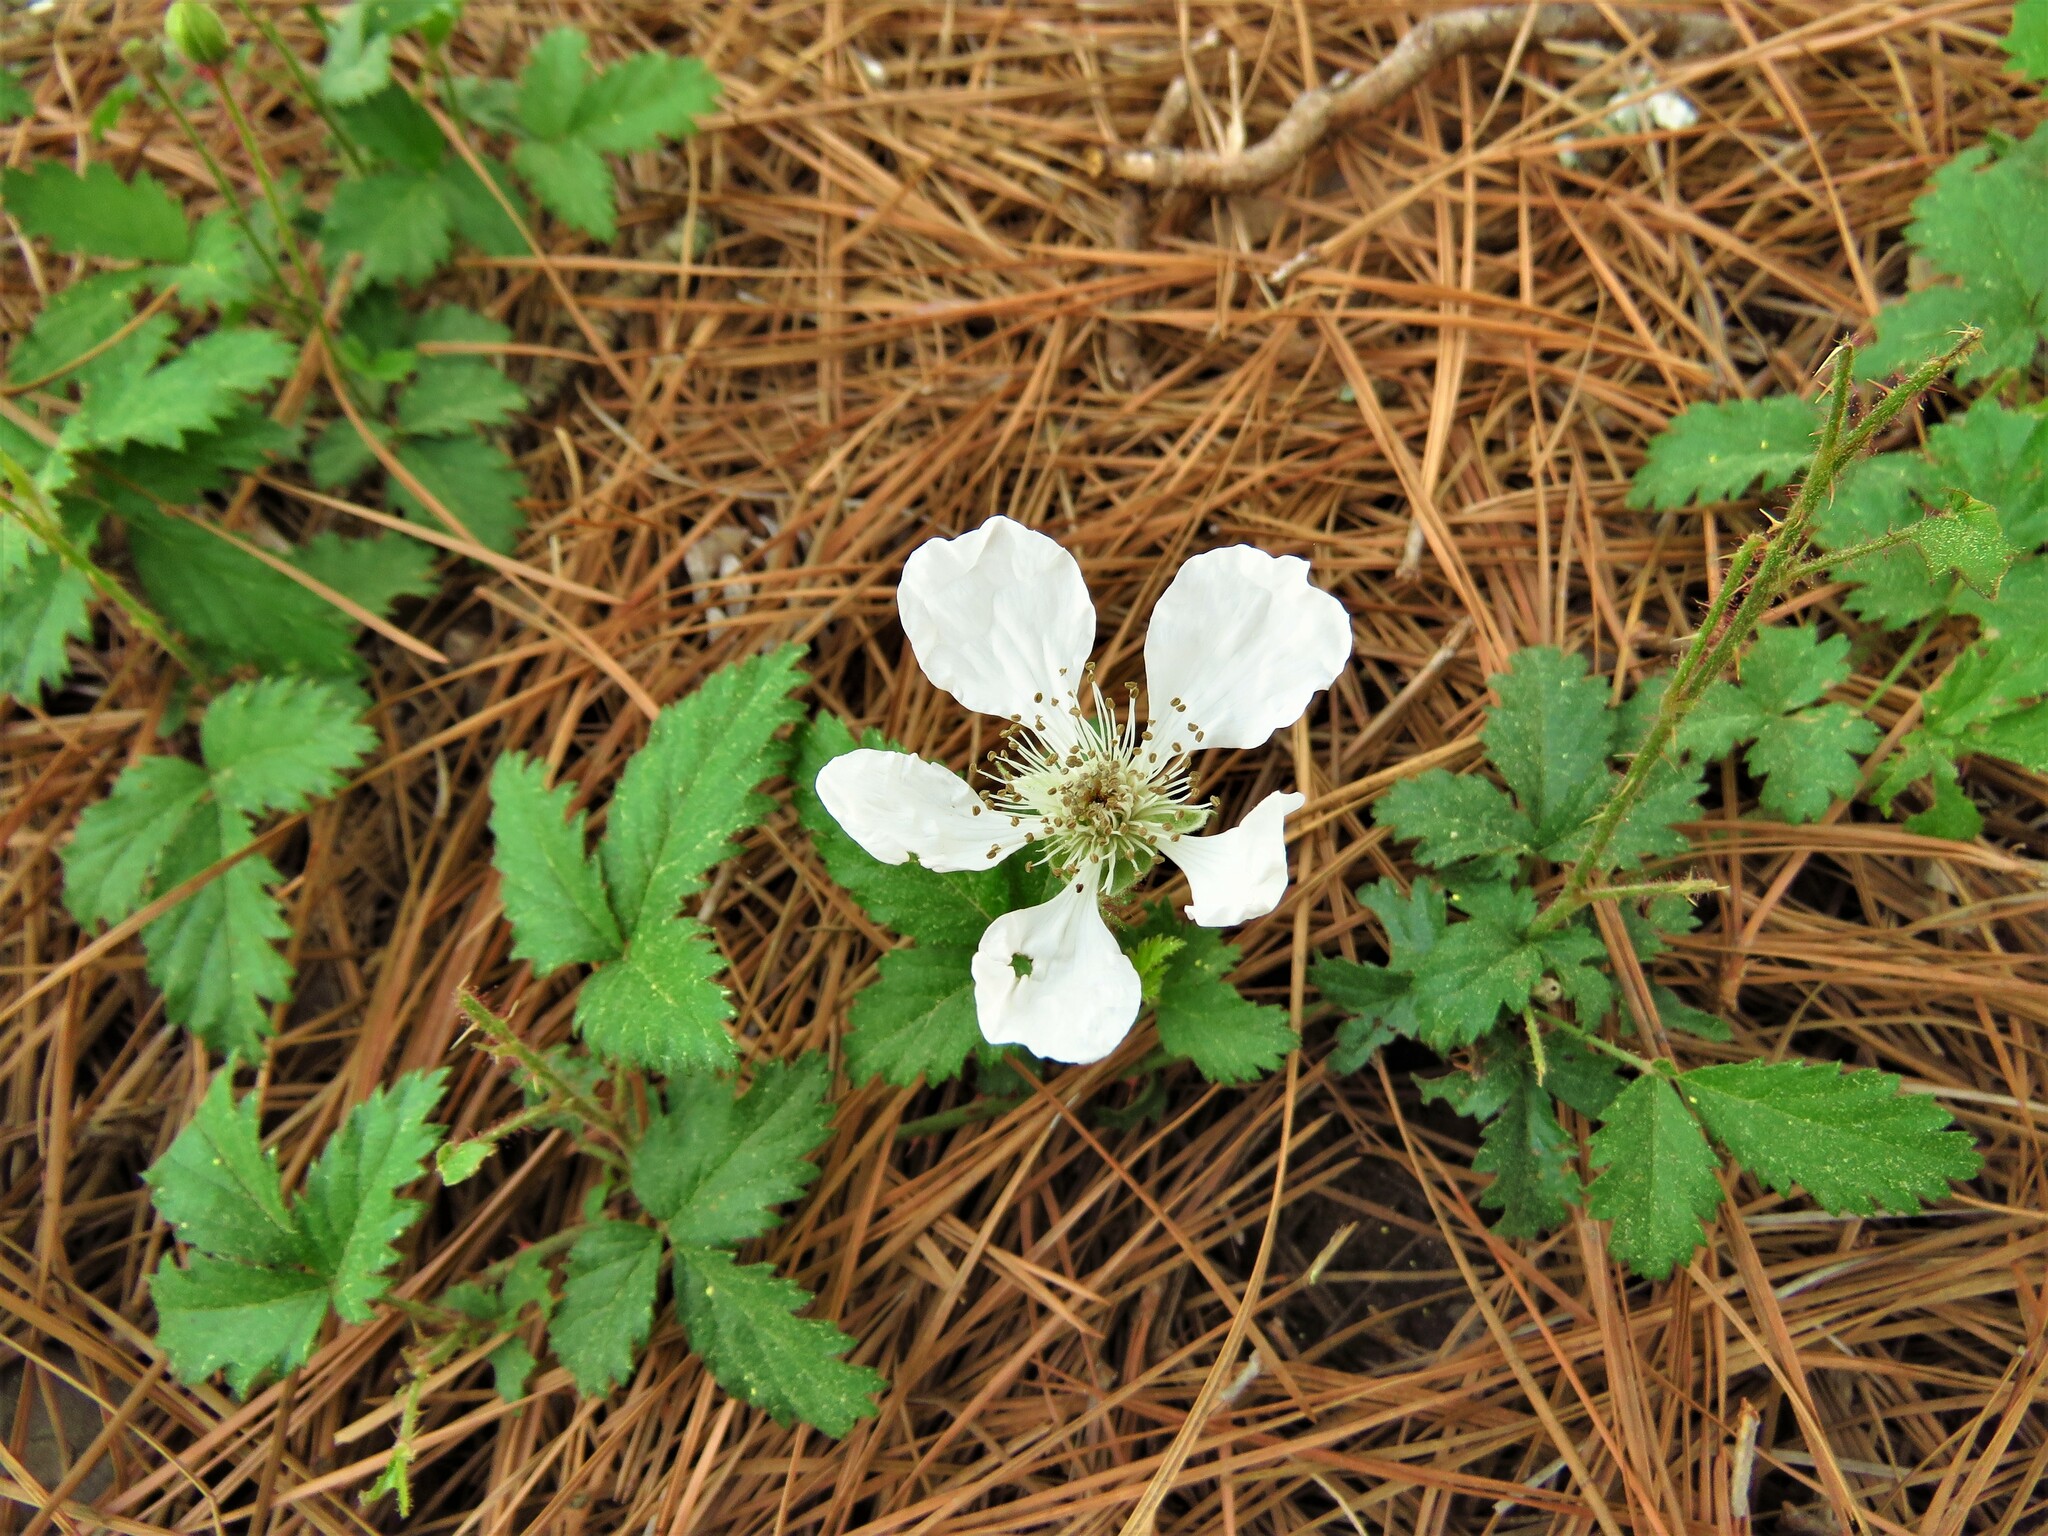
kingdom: Plantae
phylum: Tracheophyta
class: Magnoliopsida
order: Rosales
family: Rosaceae
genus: Rubus
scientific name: Rubus trivialis
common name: Southern dewberry
